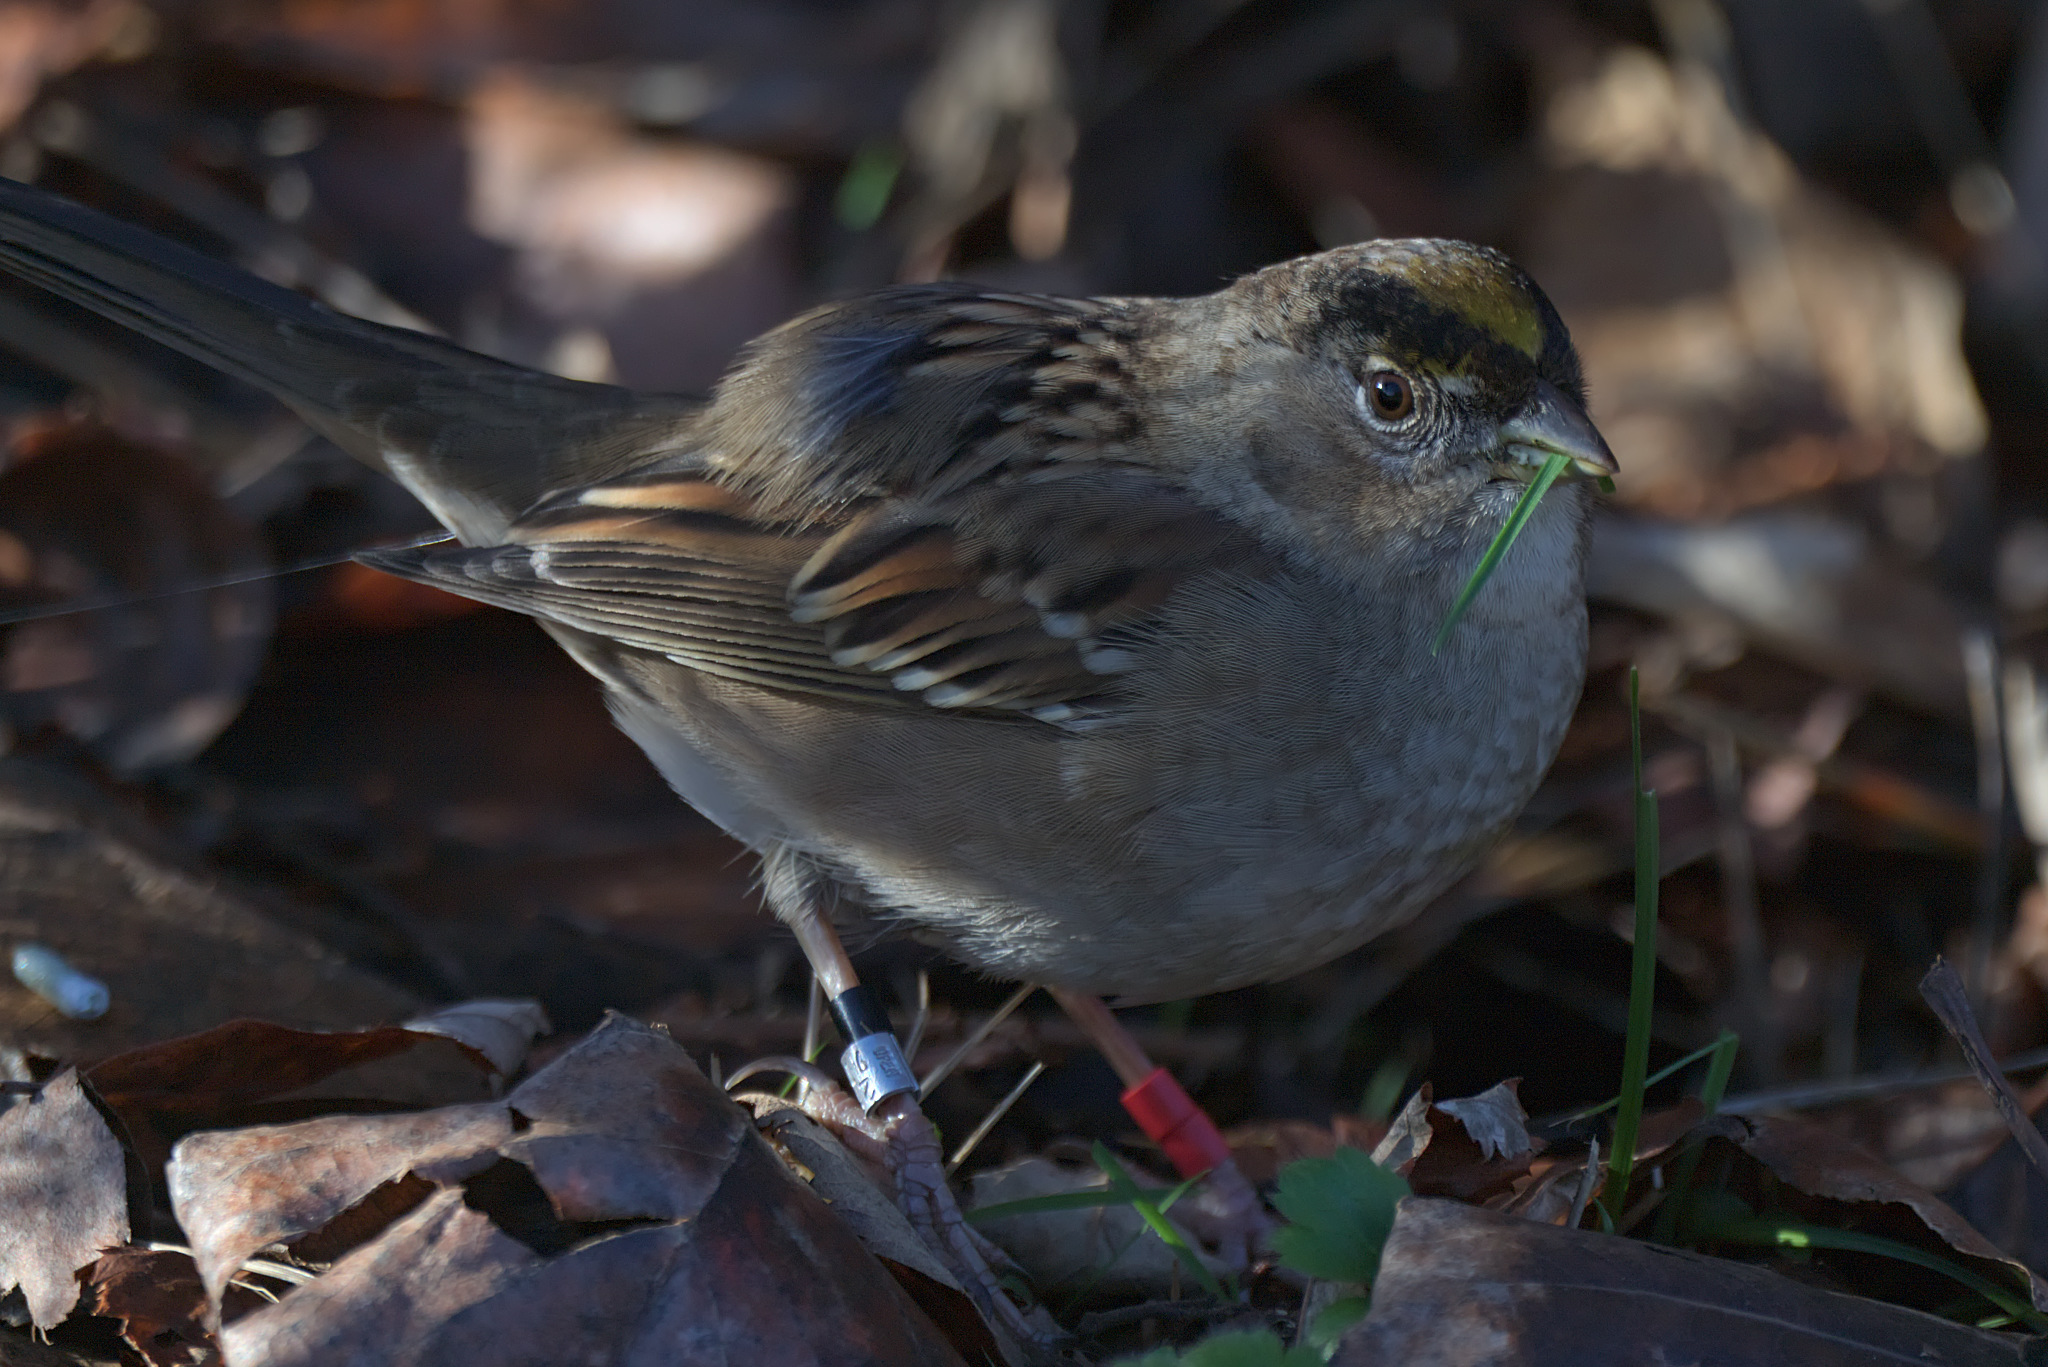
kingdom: Animalia
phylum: Chordata
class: Aves
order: Passeriformes
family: Passerellidae
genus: Zonotrichia
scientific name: Zonotrichia atricapilla
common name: Golden-crowned sparrow
